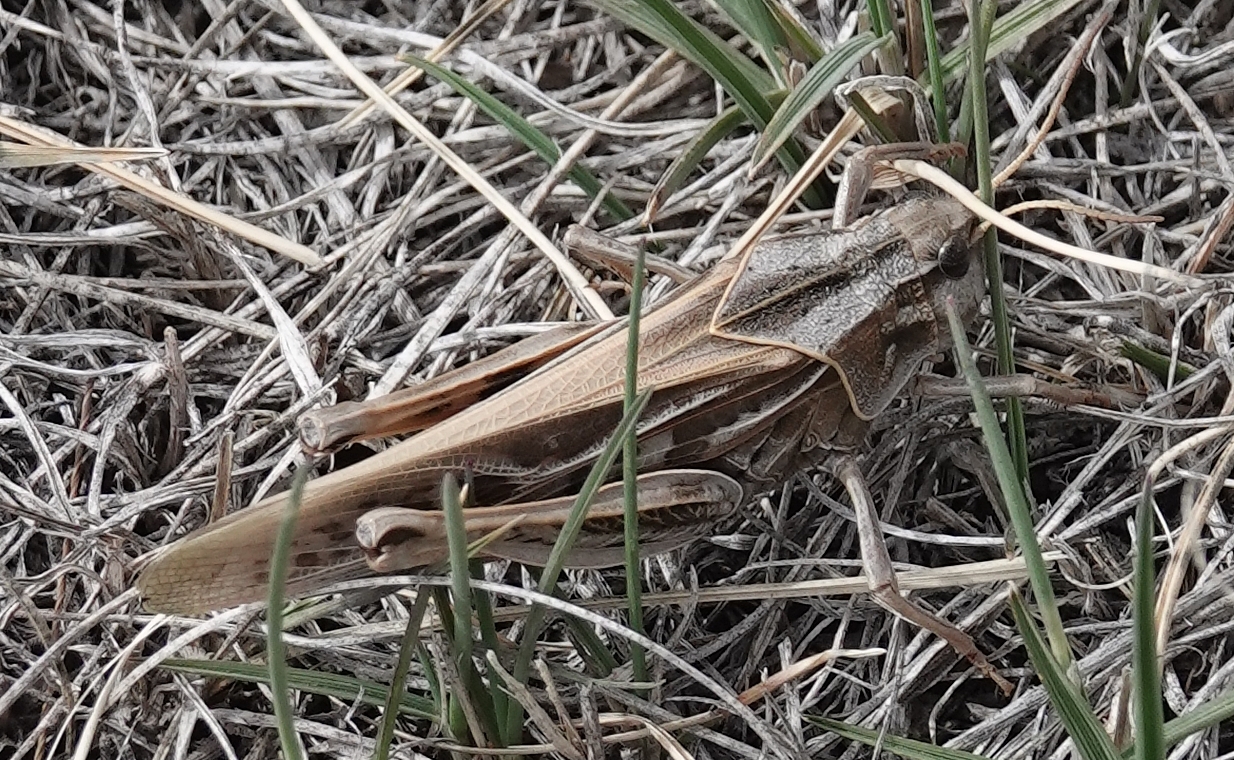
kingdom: Animalia
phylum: Arthropoda
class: Insecta
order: Orthoptera
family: Acrididae
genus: Pardalophora
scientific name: Pardalophora apiculata
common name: Coral-winged locust
